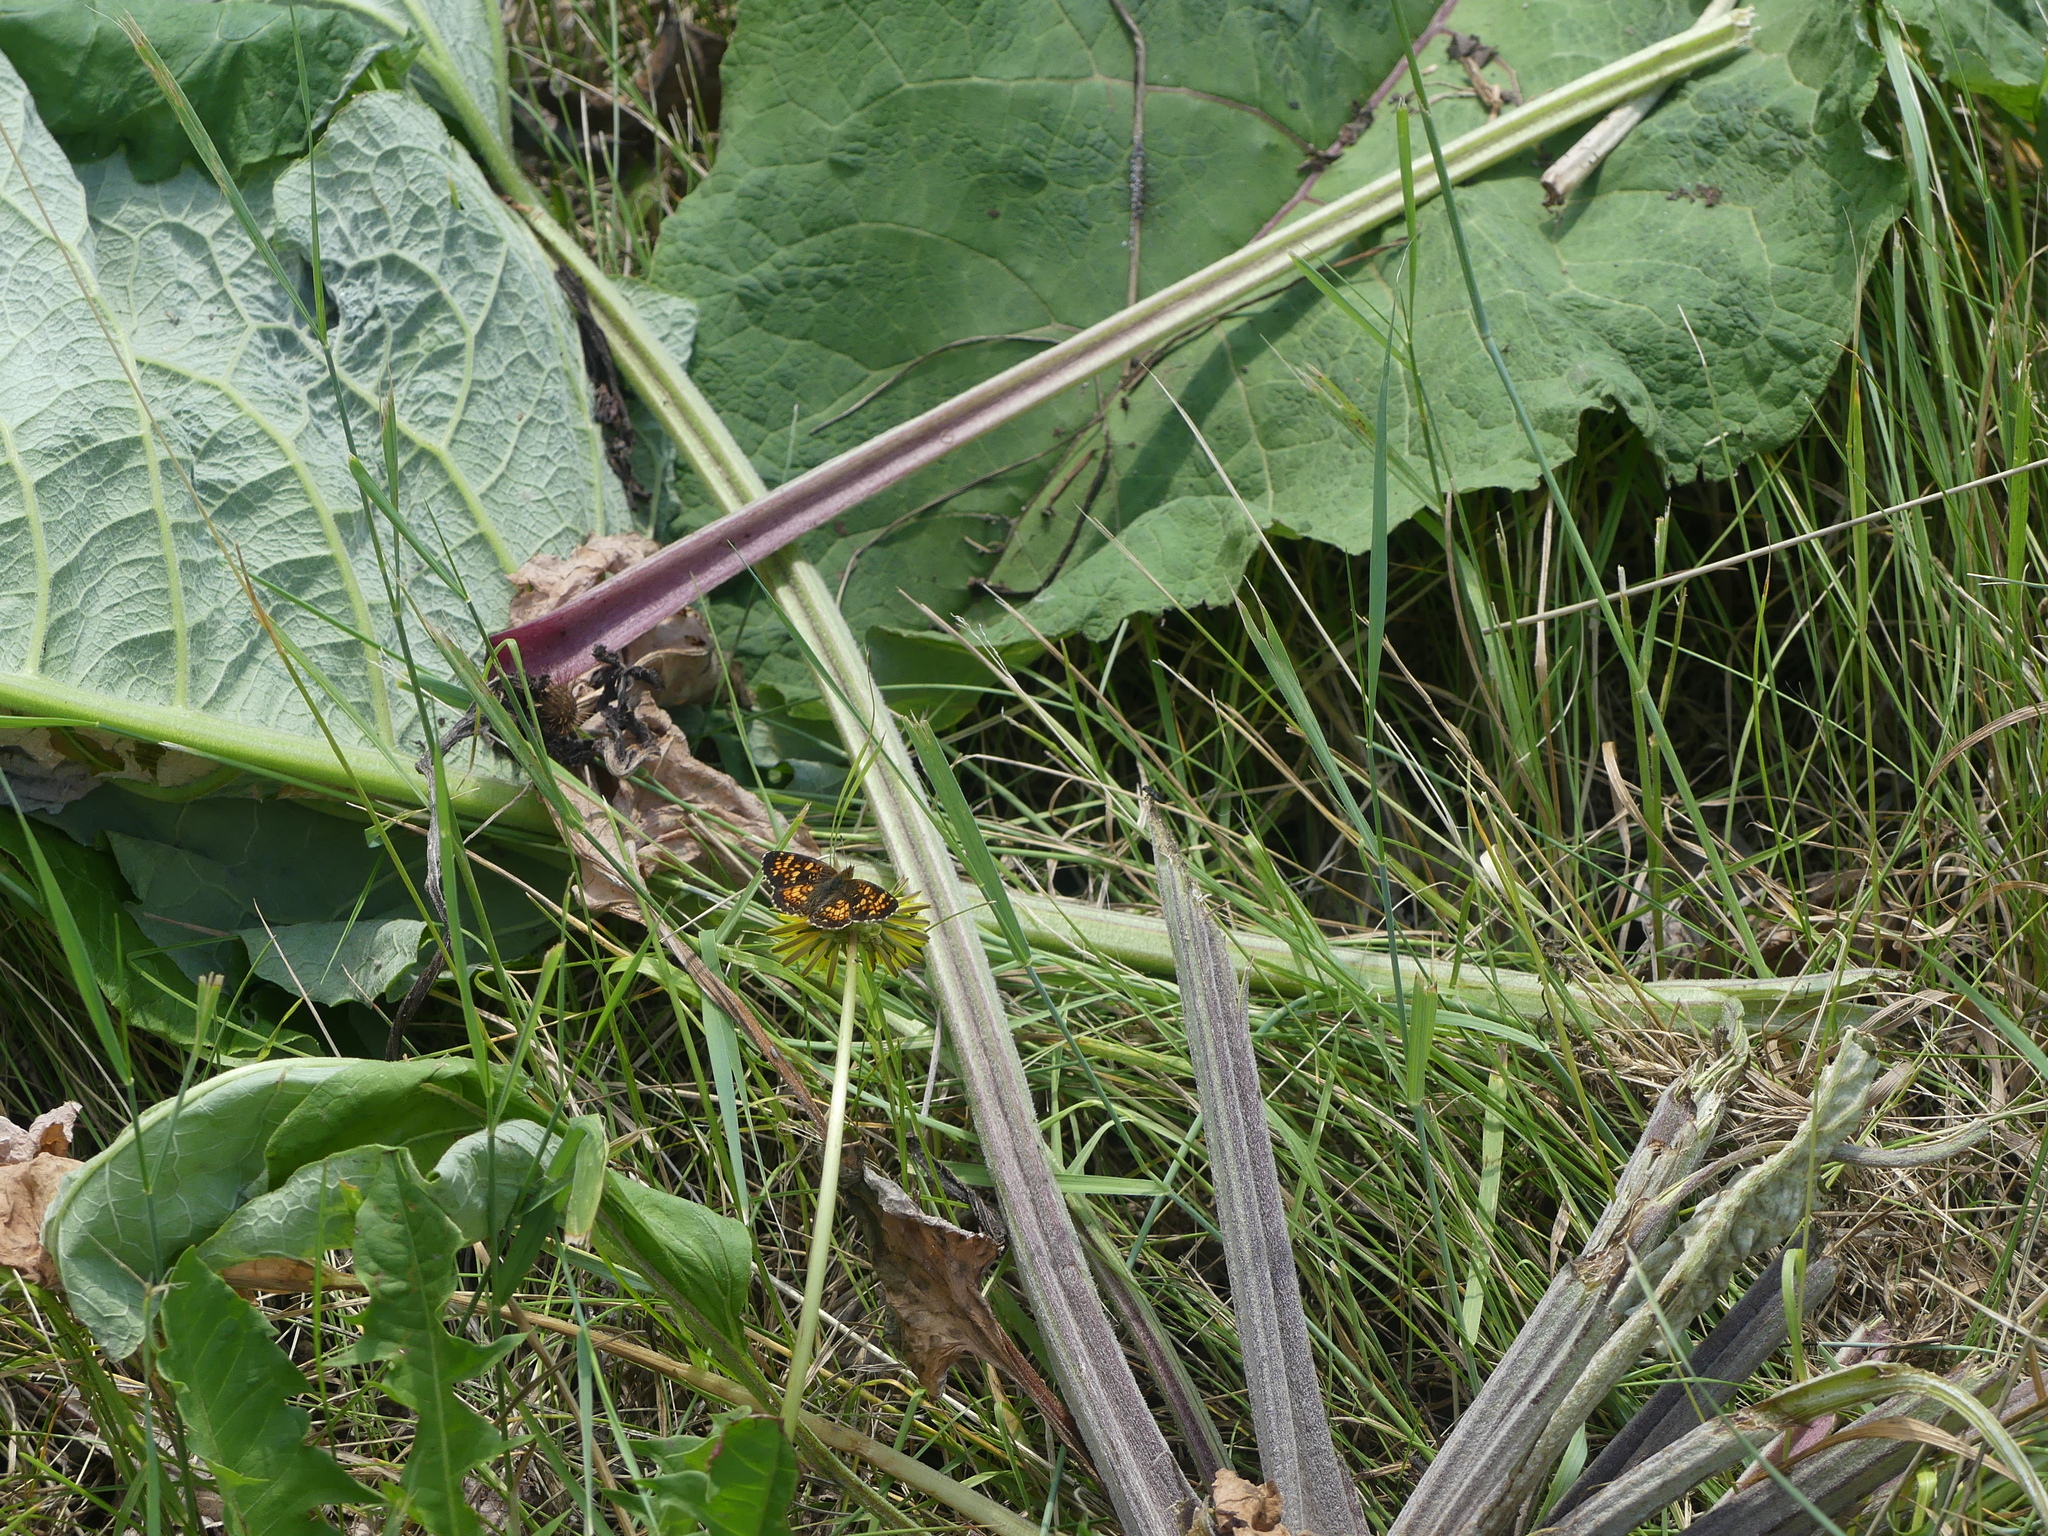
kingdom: Animalia
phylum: Arthropoda
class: Insecta
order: Lepidoptera
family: Nymphalidae
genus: Phyciodes
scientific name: Phyciodes tharos
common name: Pearl crescent
